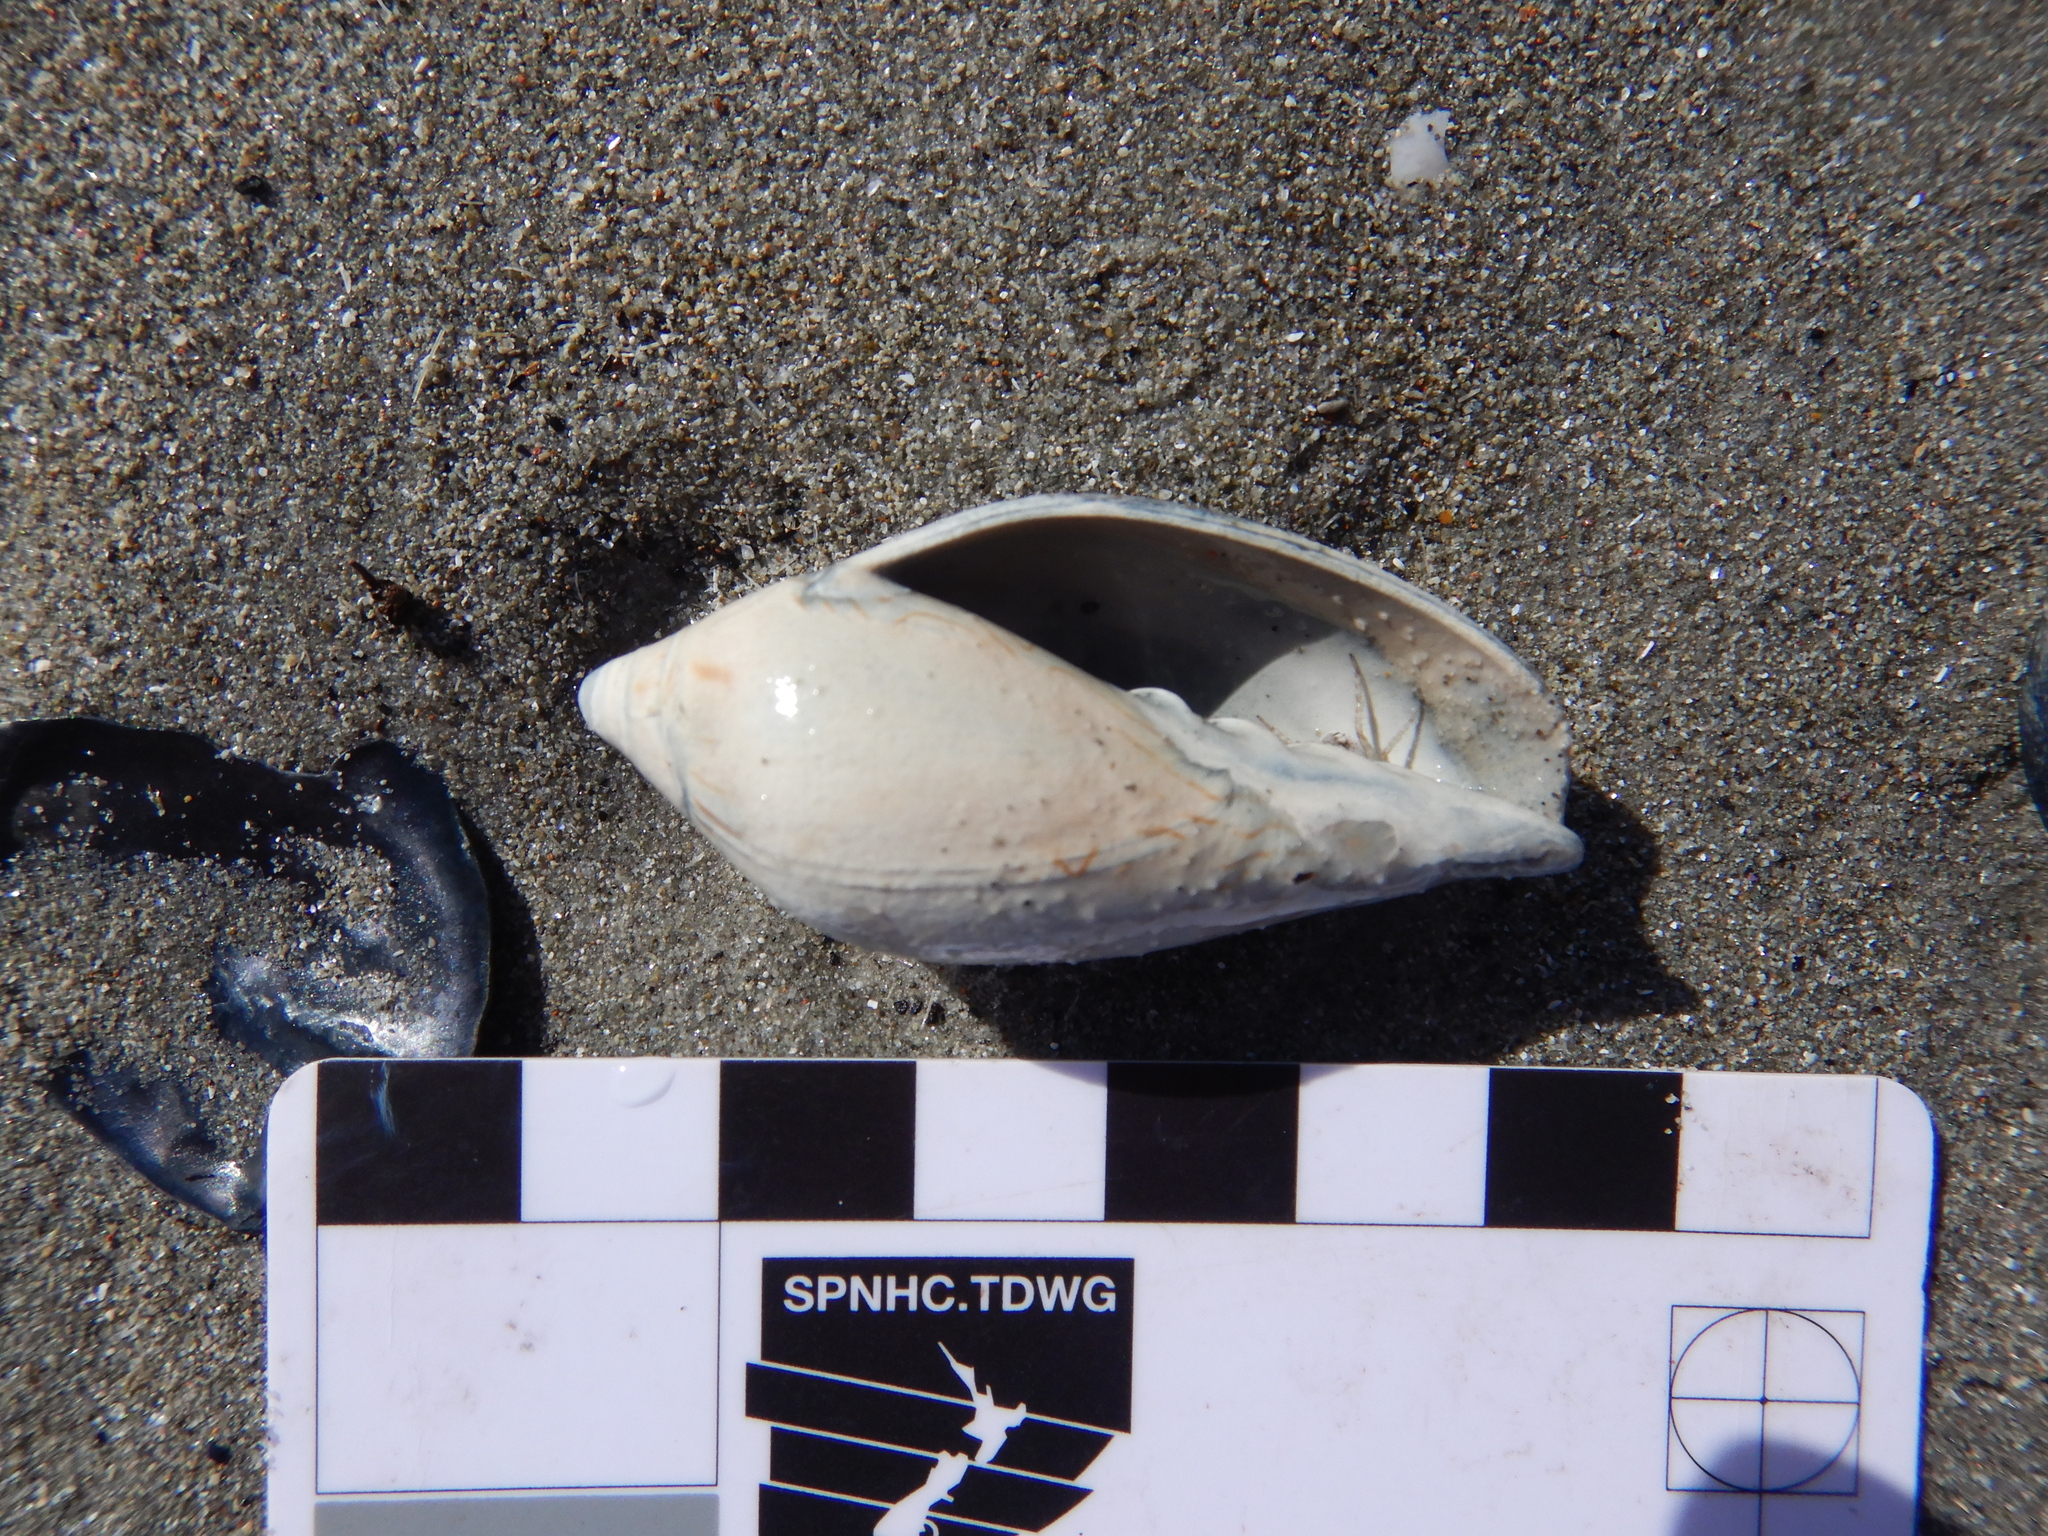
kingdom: Animalia
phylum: Mollusca
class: Gastropoda
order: Neogastropoda
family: Volutidae
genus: Amoria
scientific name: Amoria undulata
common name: Waved volute
